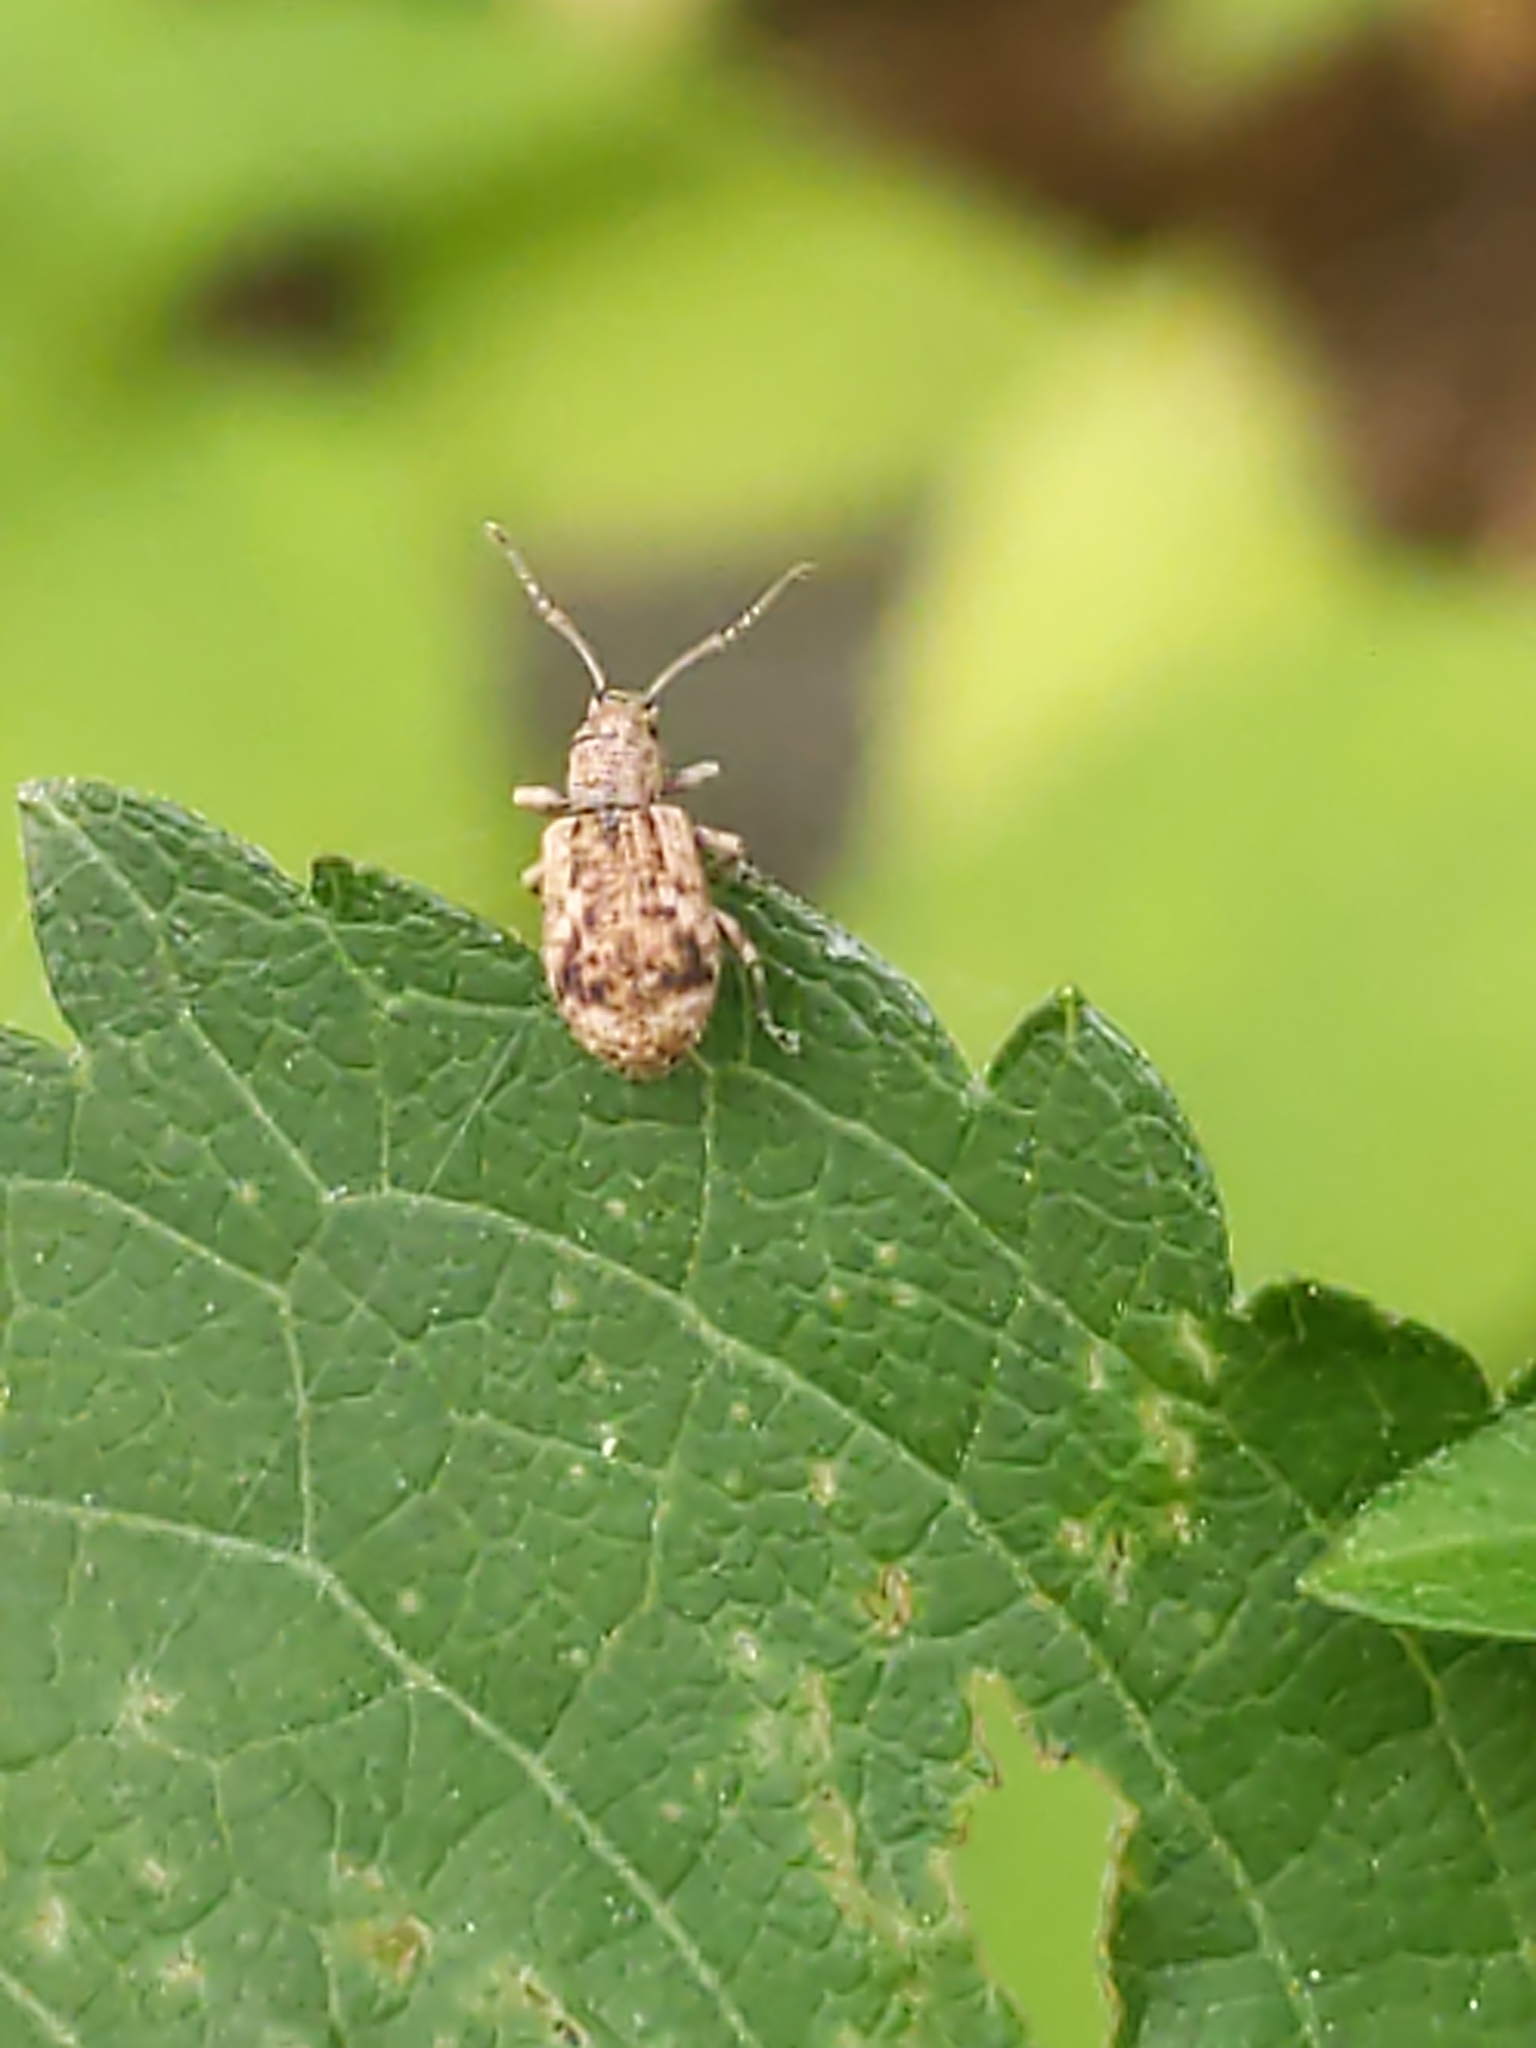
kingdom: Animalia
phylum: Arthropoda
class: Insecta
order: Coleoptera
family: Curculionidae
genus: Pseudoedophrys
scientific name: Pseudoedophrys hilleri
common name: Weevil
